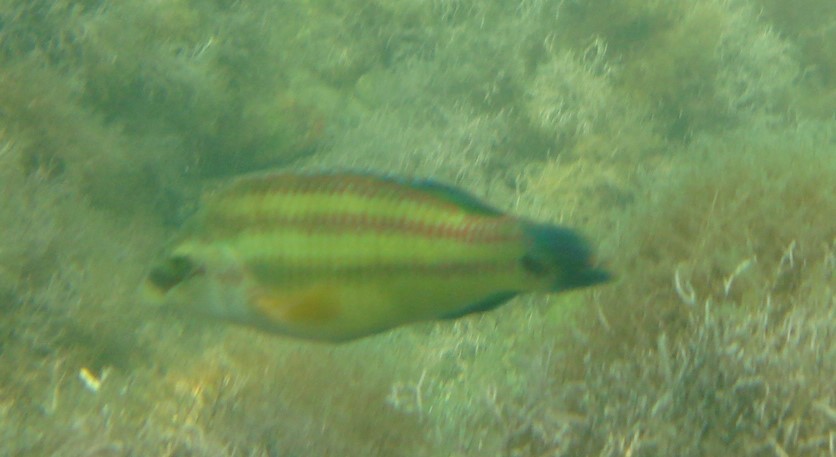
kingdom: Animalia
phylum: Chordata
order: Perciformes
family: Labridae
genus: Symphodus
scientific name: Symphodus tinca
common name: Peacock wrasse
